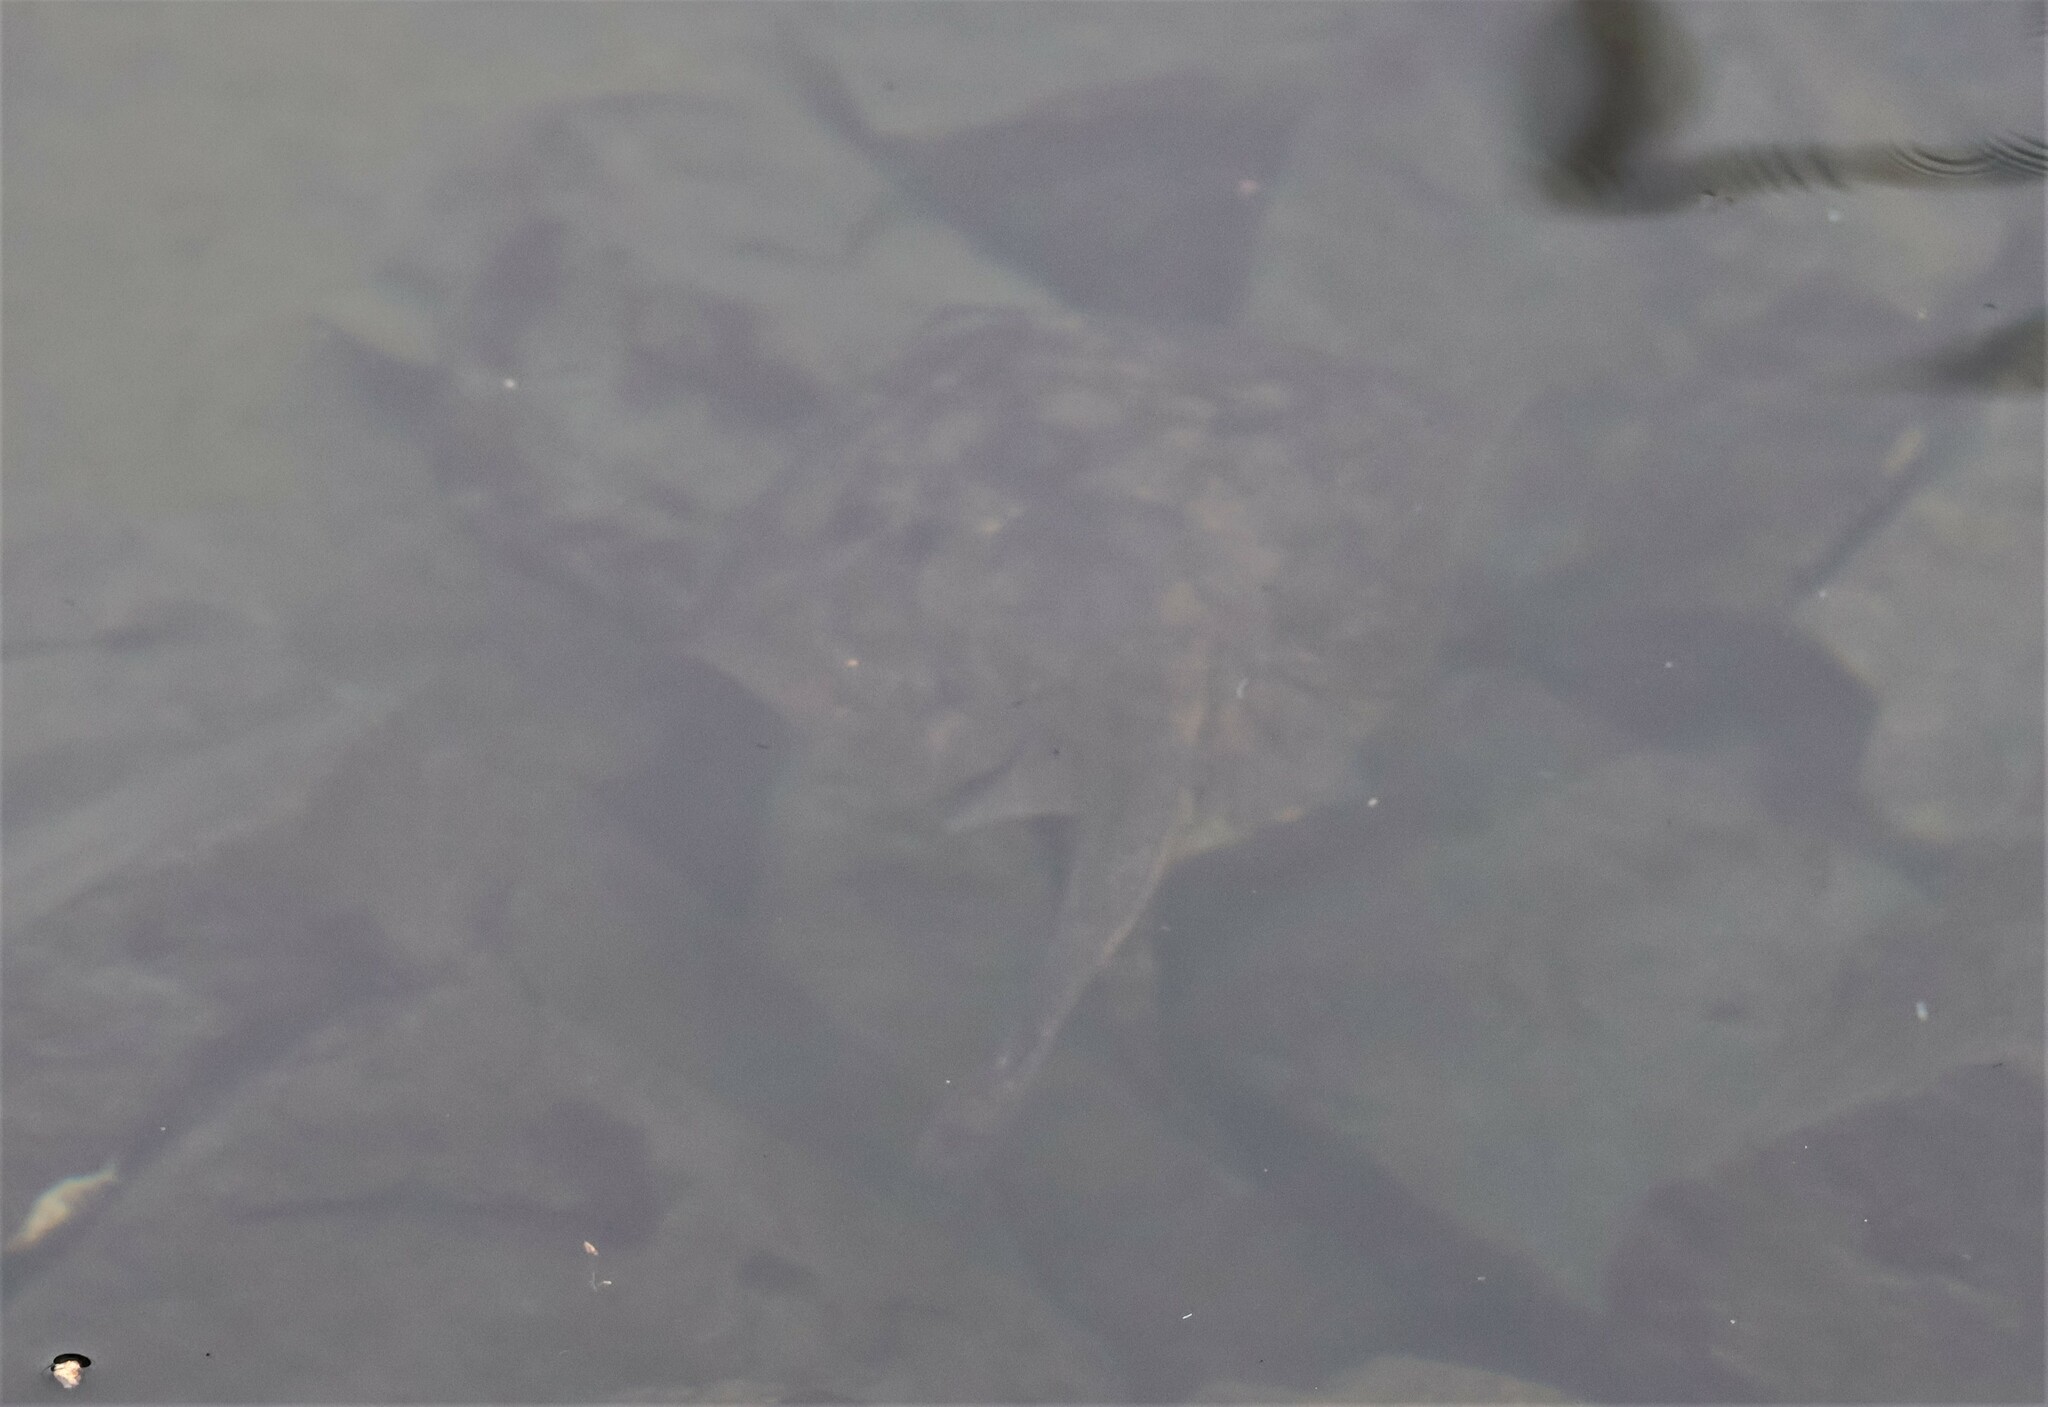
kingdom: Animalia
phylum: Chordata
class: Elasmobranchii
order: Myliobatiformes
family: Urolophidae
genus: Urolophus
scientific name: Urolophus halleri
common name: Round stingray
